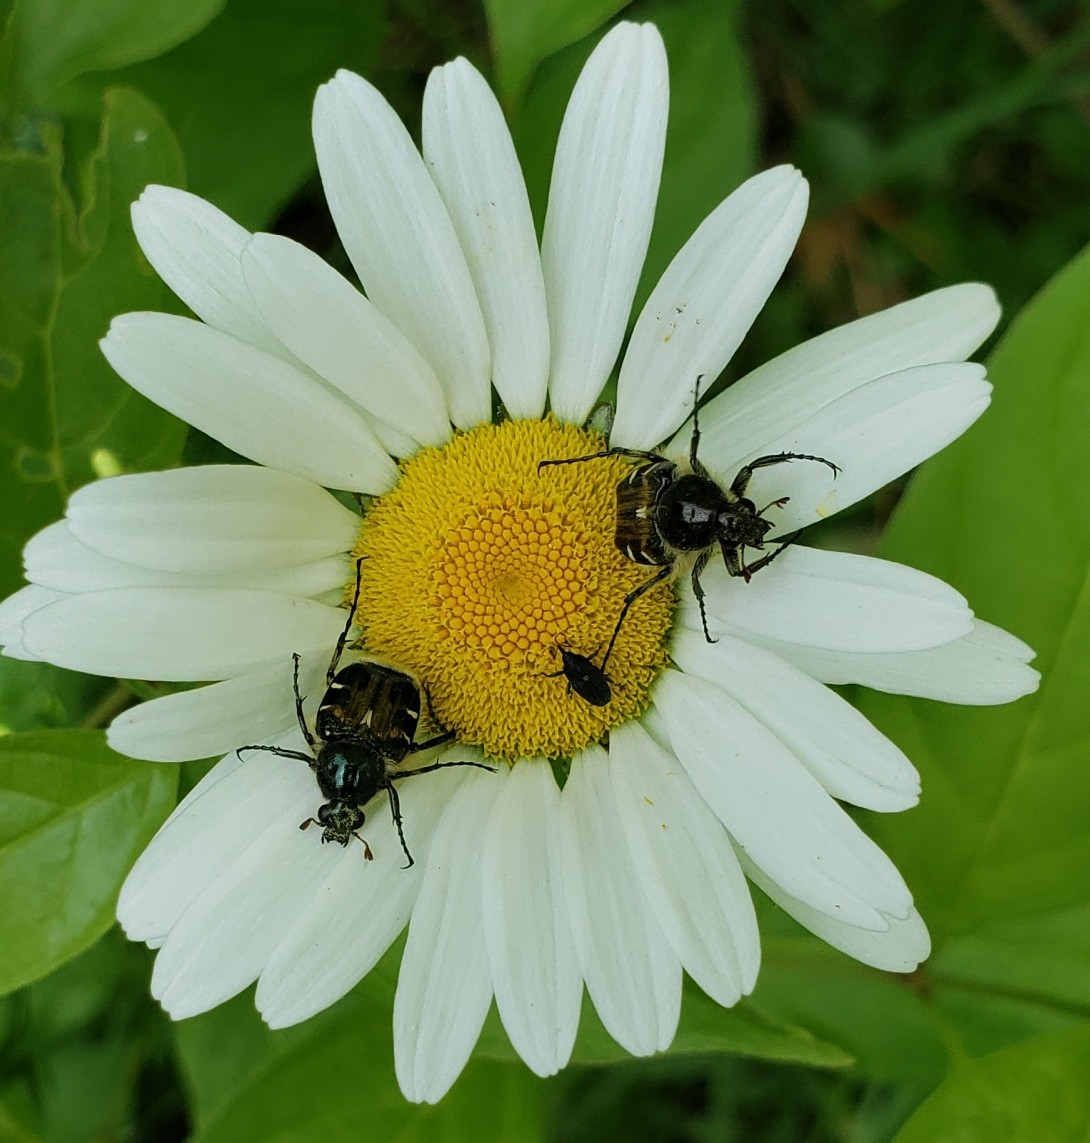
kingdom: Animalia
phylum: Arthropoda
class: Insecta
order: Coleoptera
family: Scarabaeidae
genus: Trichiotinus
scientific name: Trichiotinus piger
